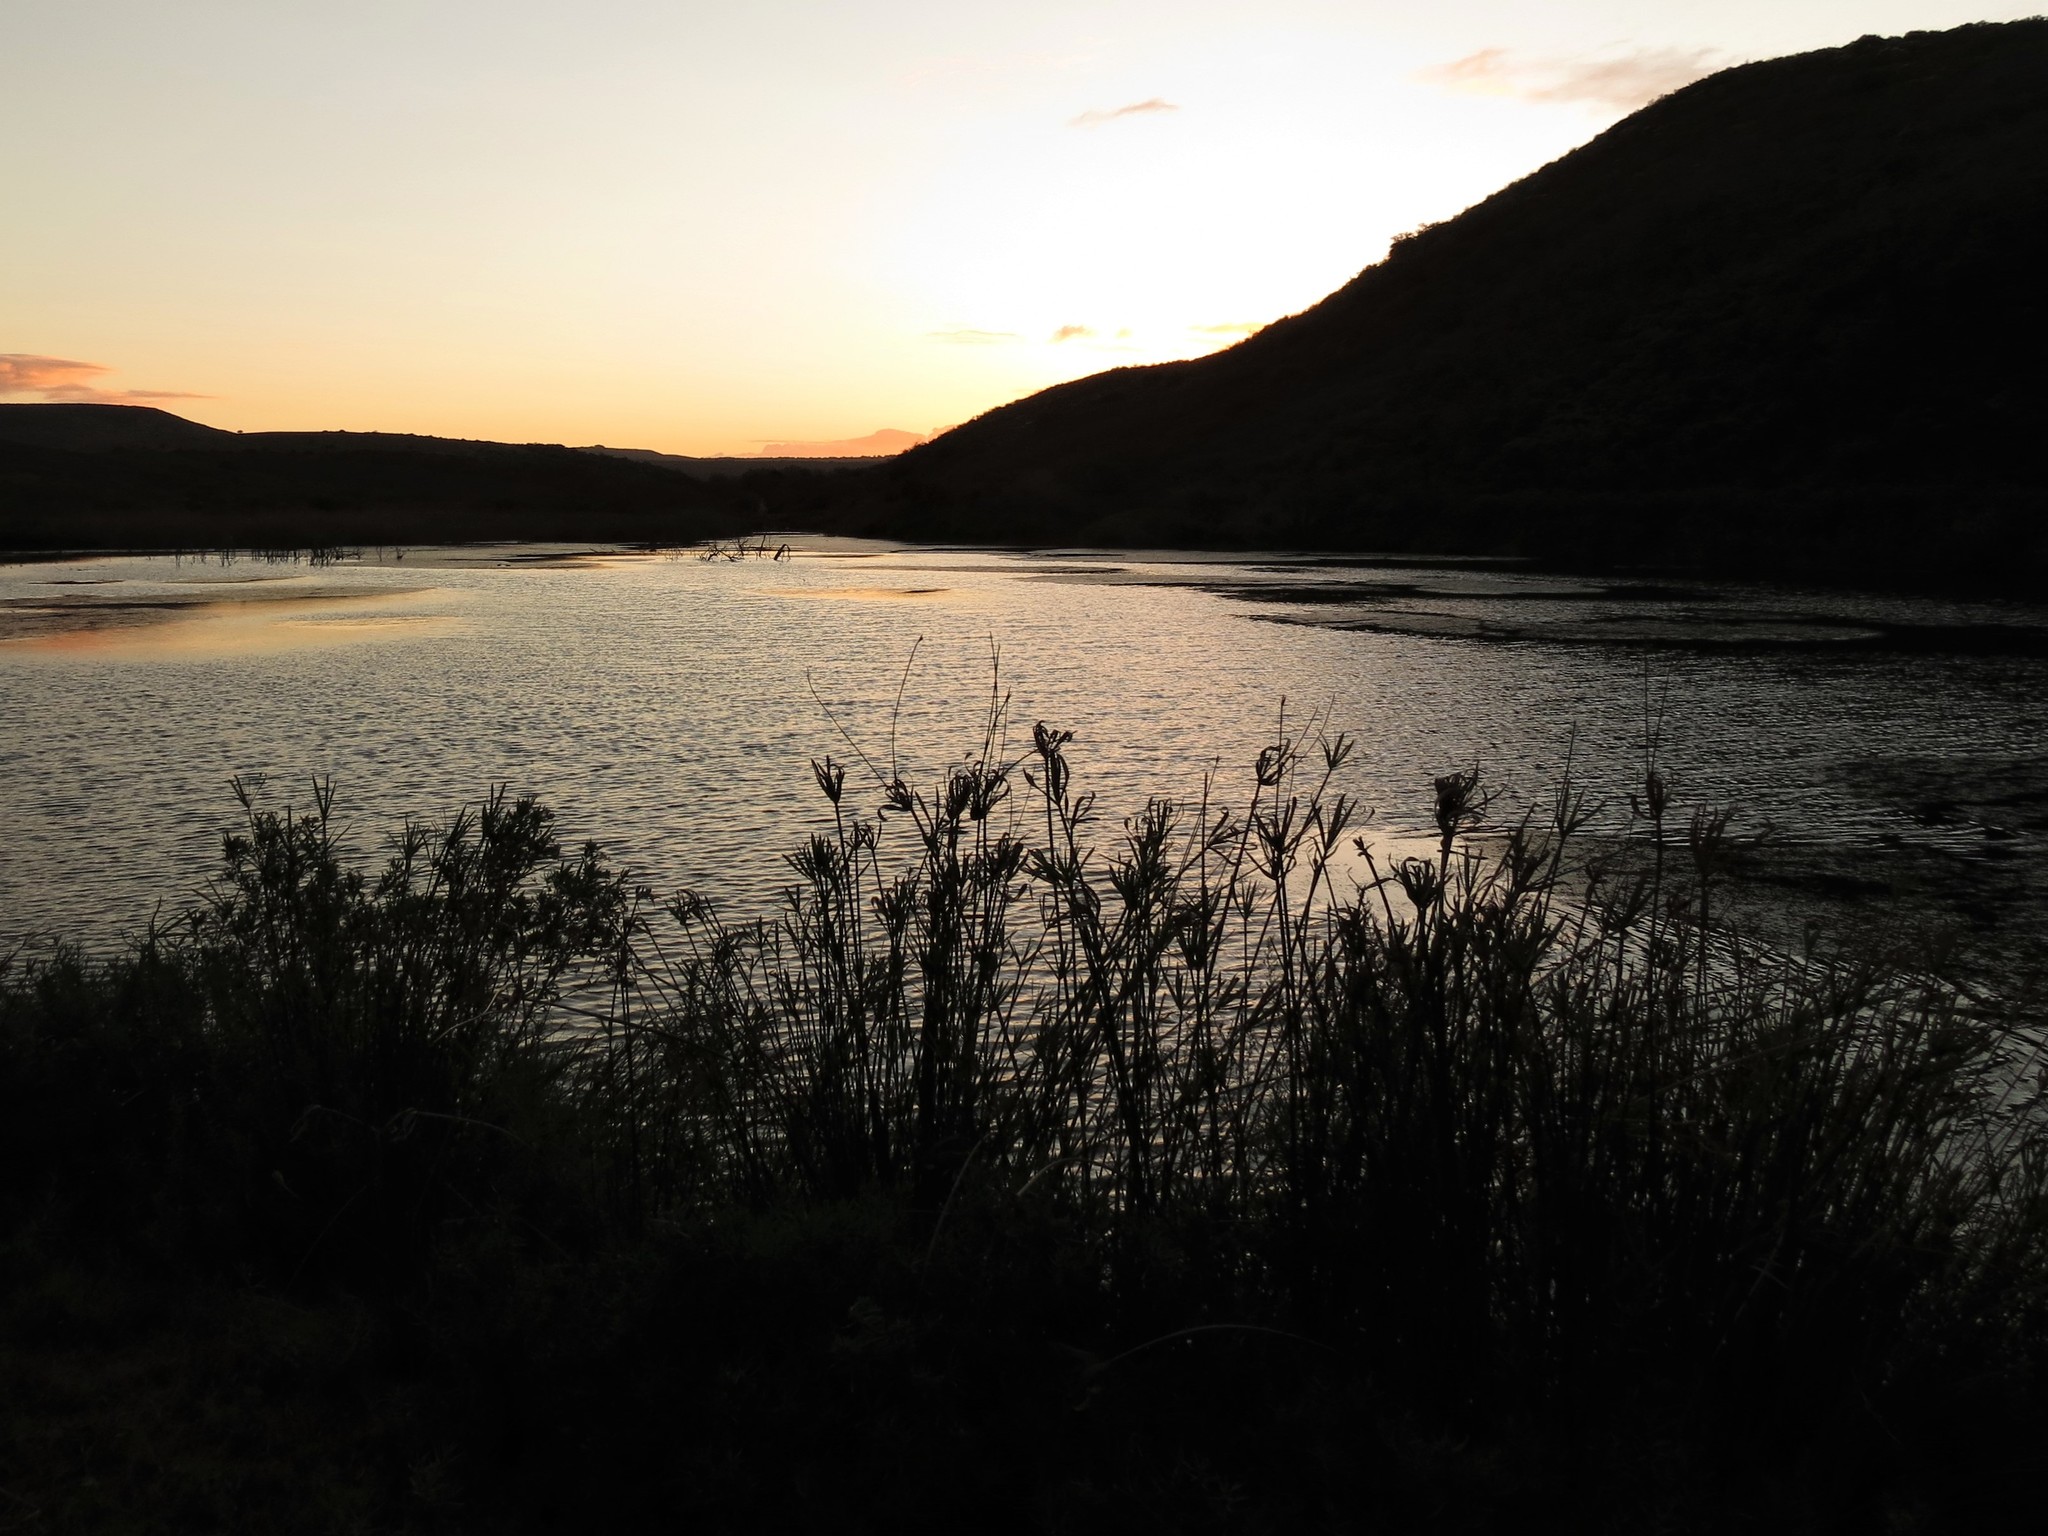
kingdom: Plantae
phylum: Tracheophyta
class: Liliopsida
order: Poales
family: Cyperaceae
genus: Cyperus
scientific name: Cyperus textilis
